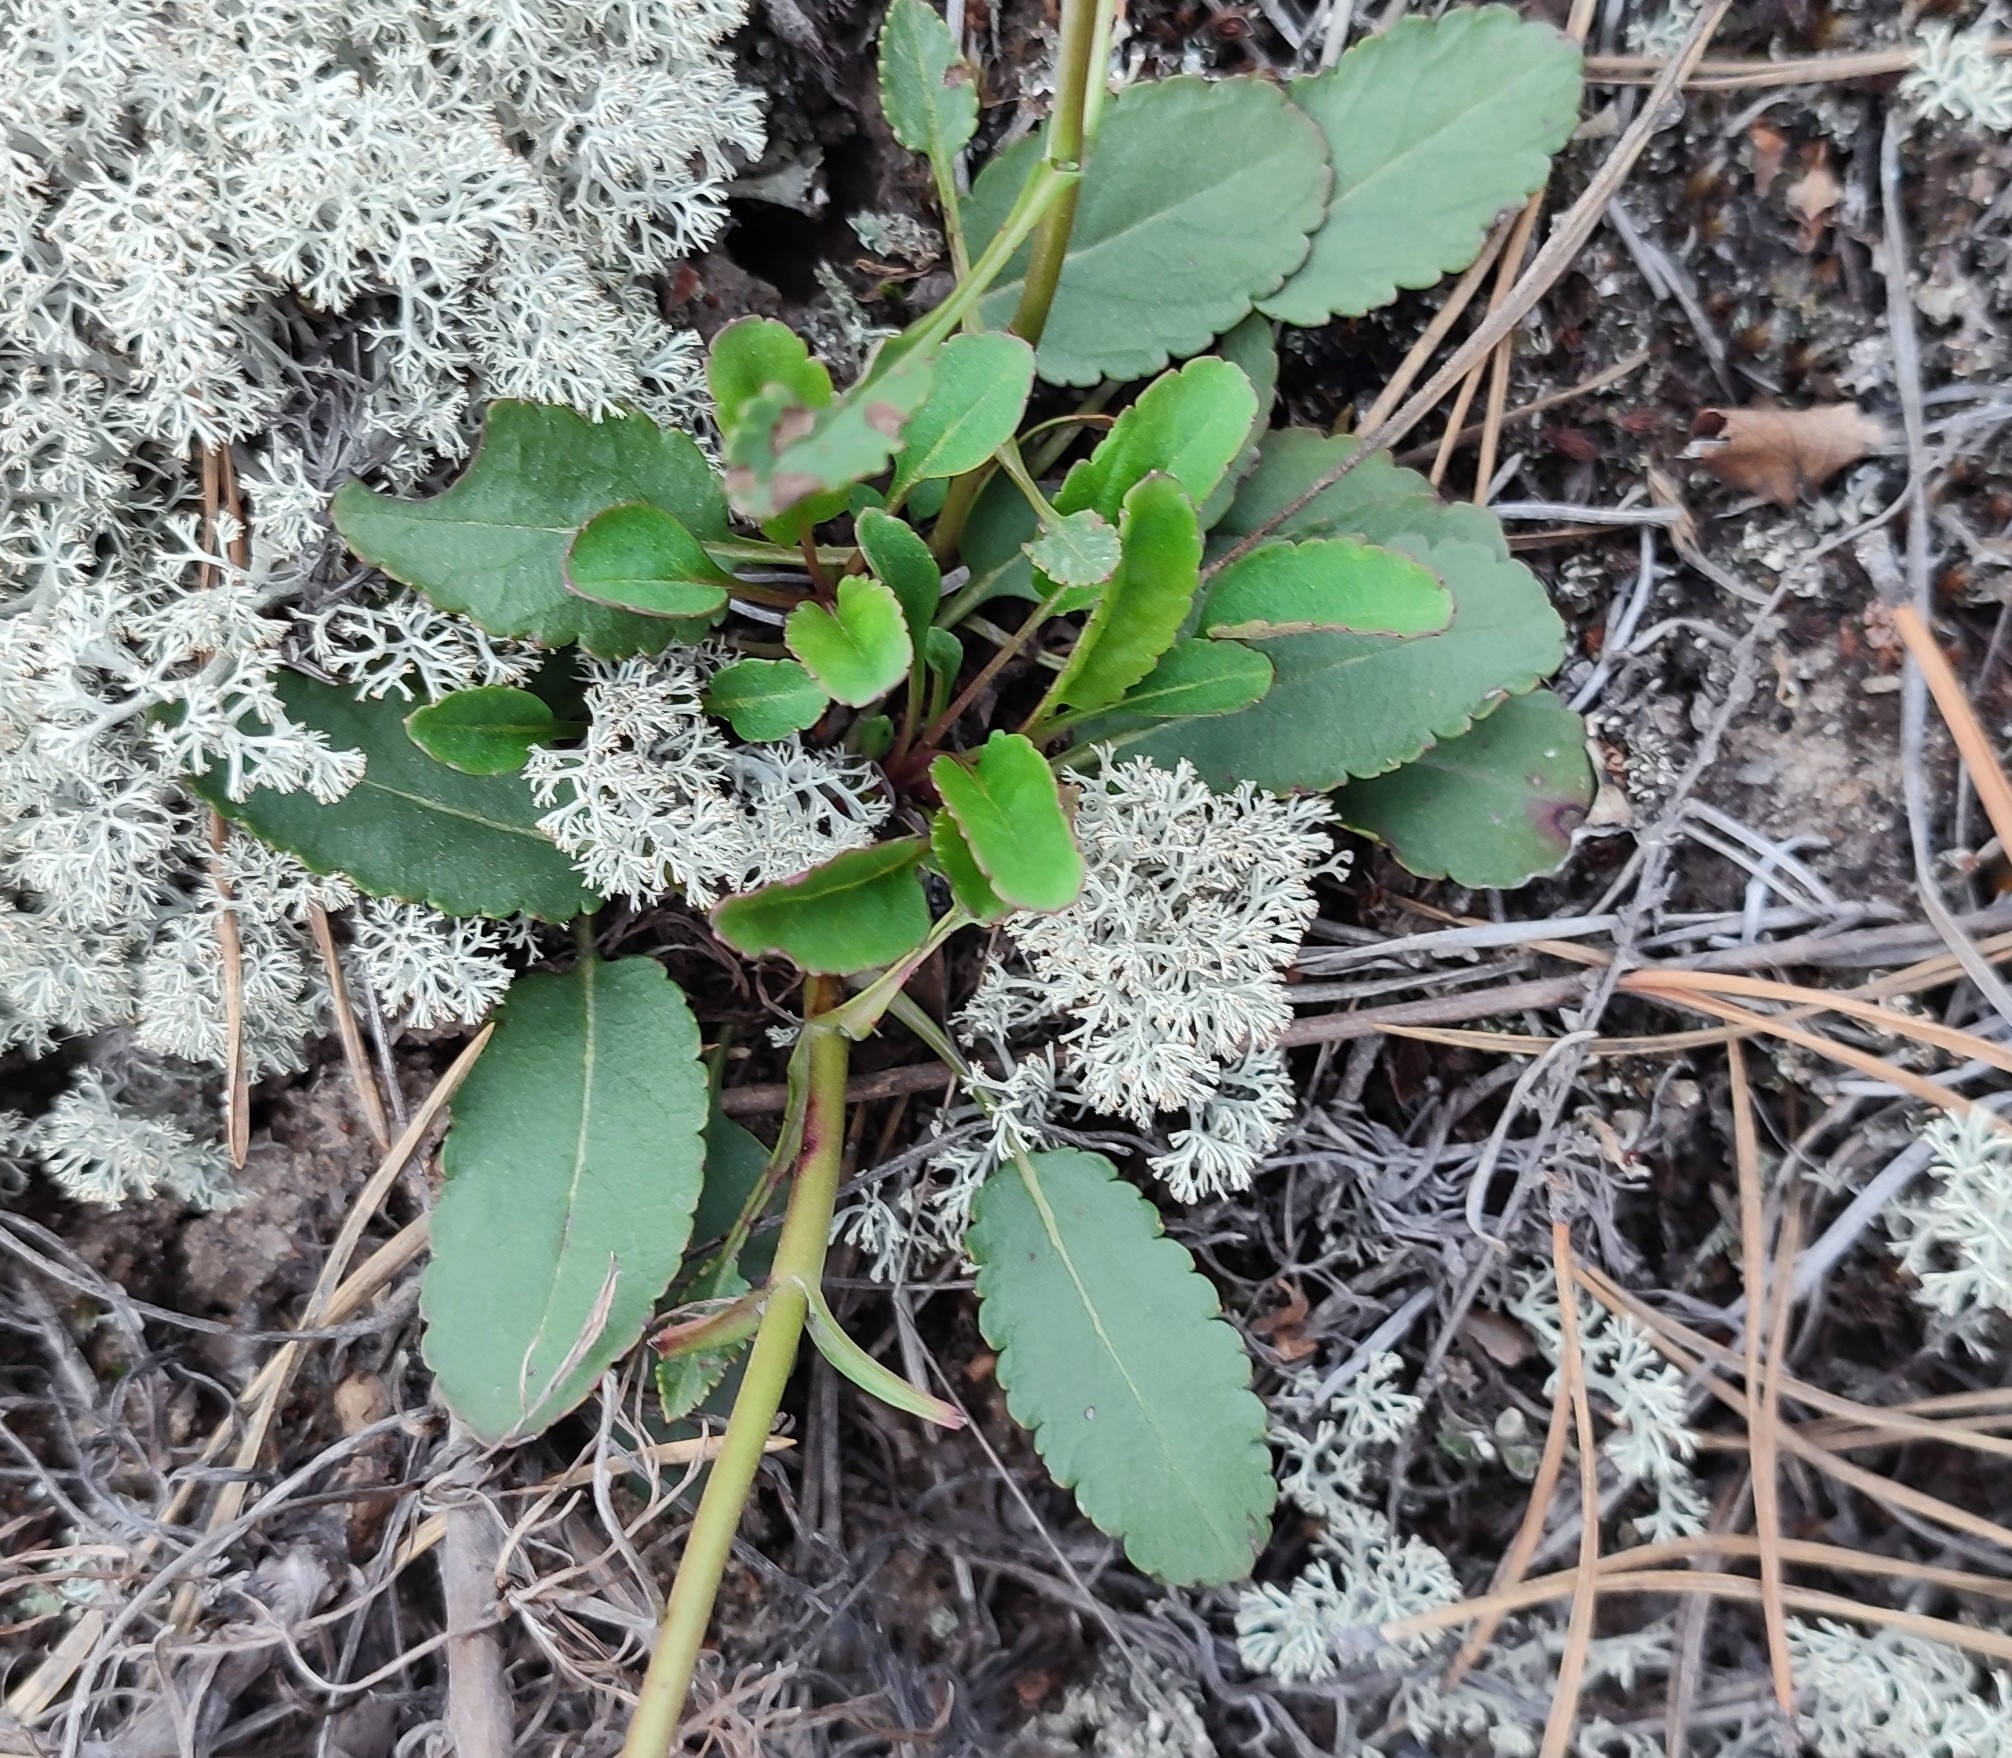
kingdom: Plantae
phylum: Tracheophyta
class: Magnoliopsida
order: Lamiales
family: Plantaginaceae
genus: Veronica
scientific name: Veronica spicata
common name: Spiked speedwell
